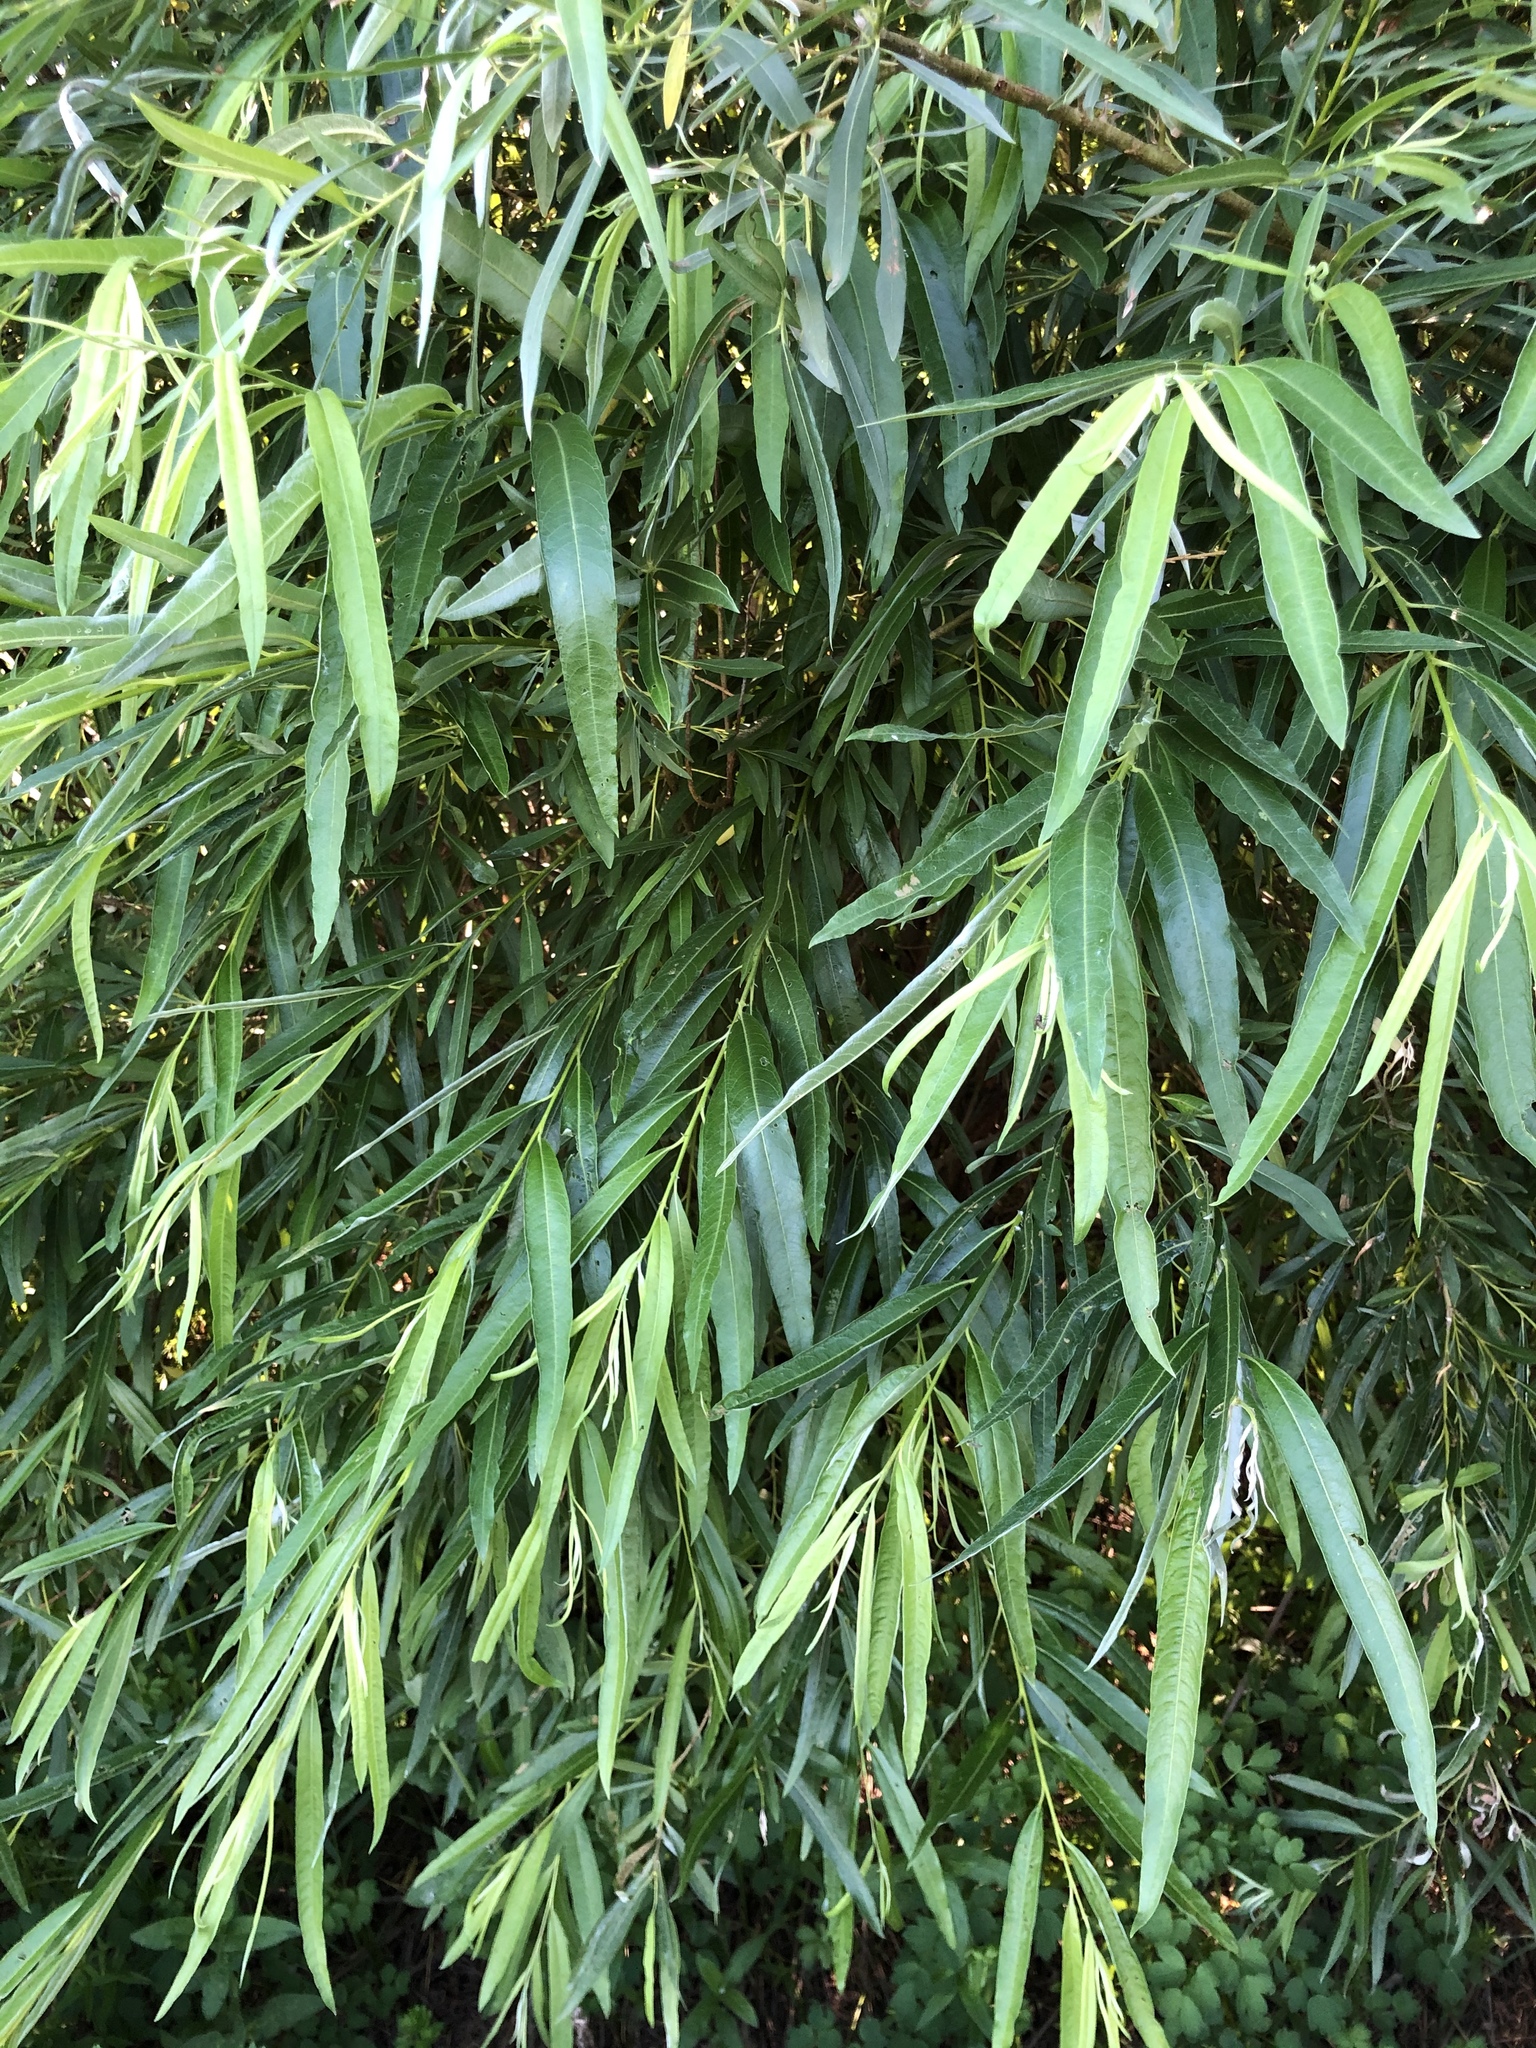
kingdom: Plantae
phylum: Tracheophyta
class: Magnoliopsida
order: Malpighiales
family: Salicaceae
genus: Salix
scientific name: Salix gmelinii
